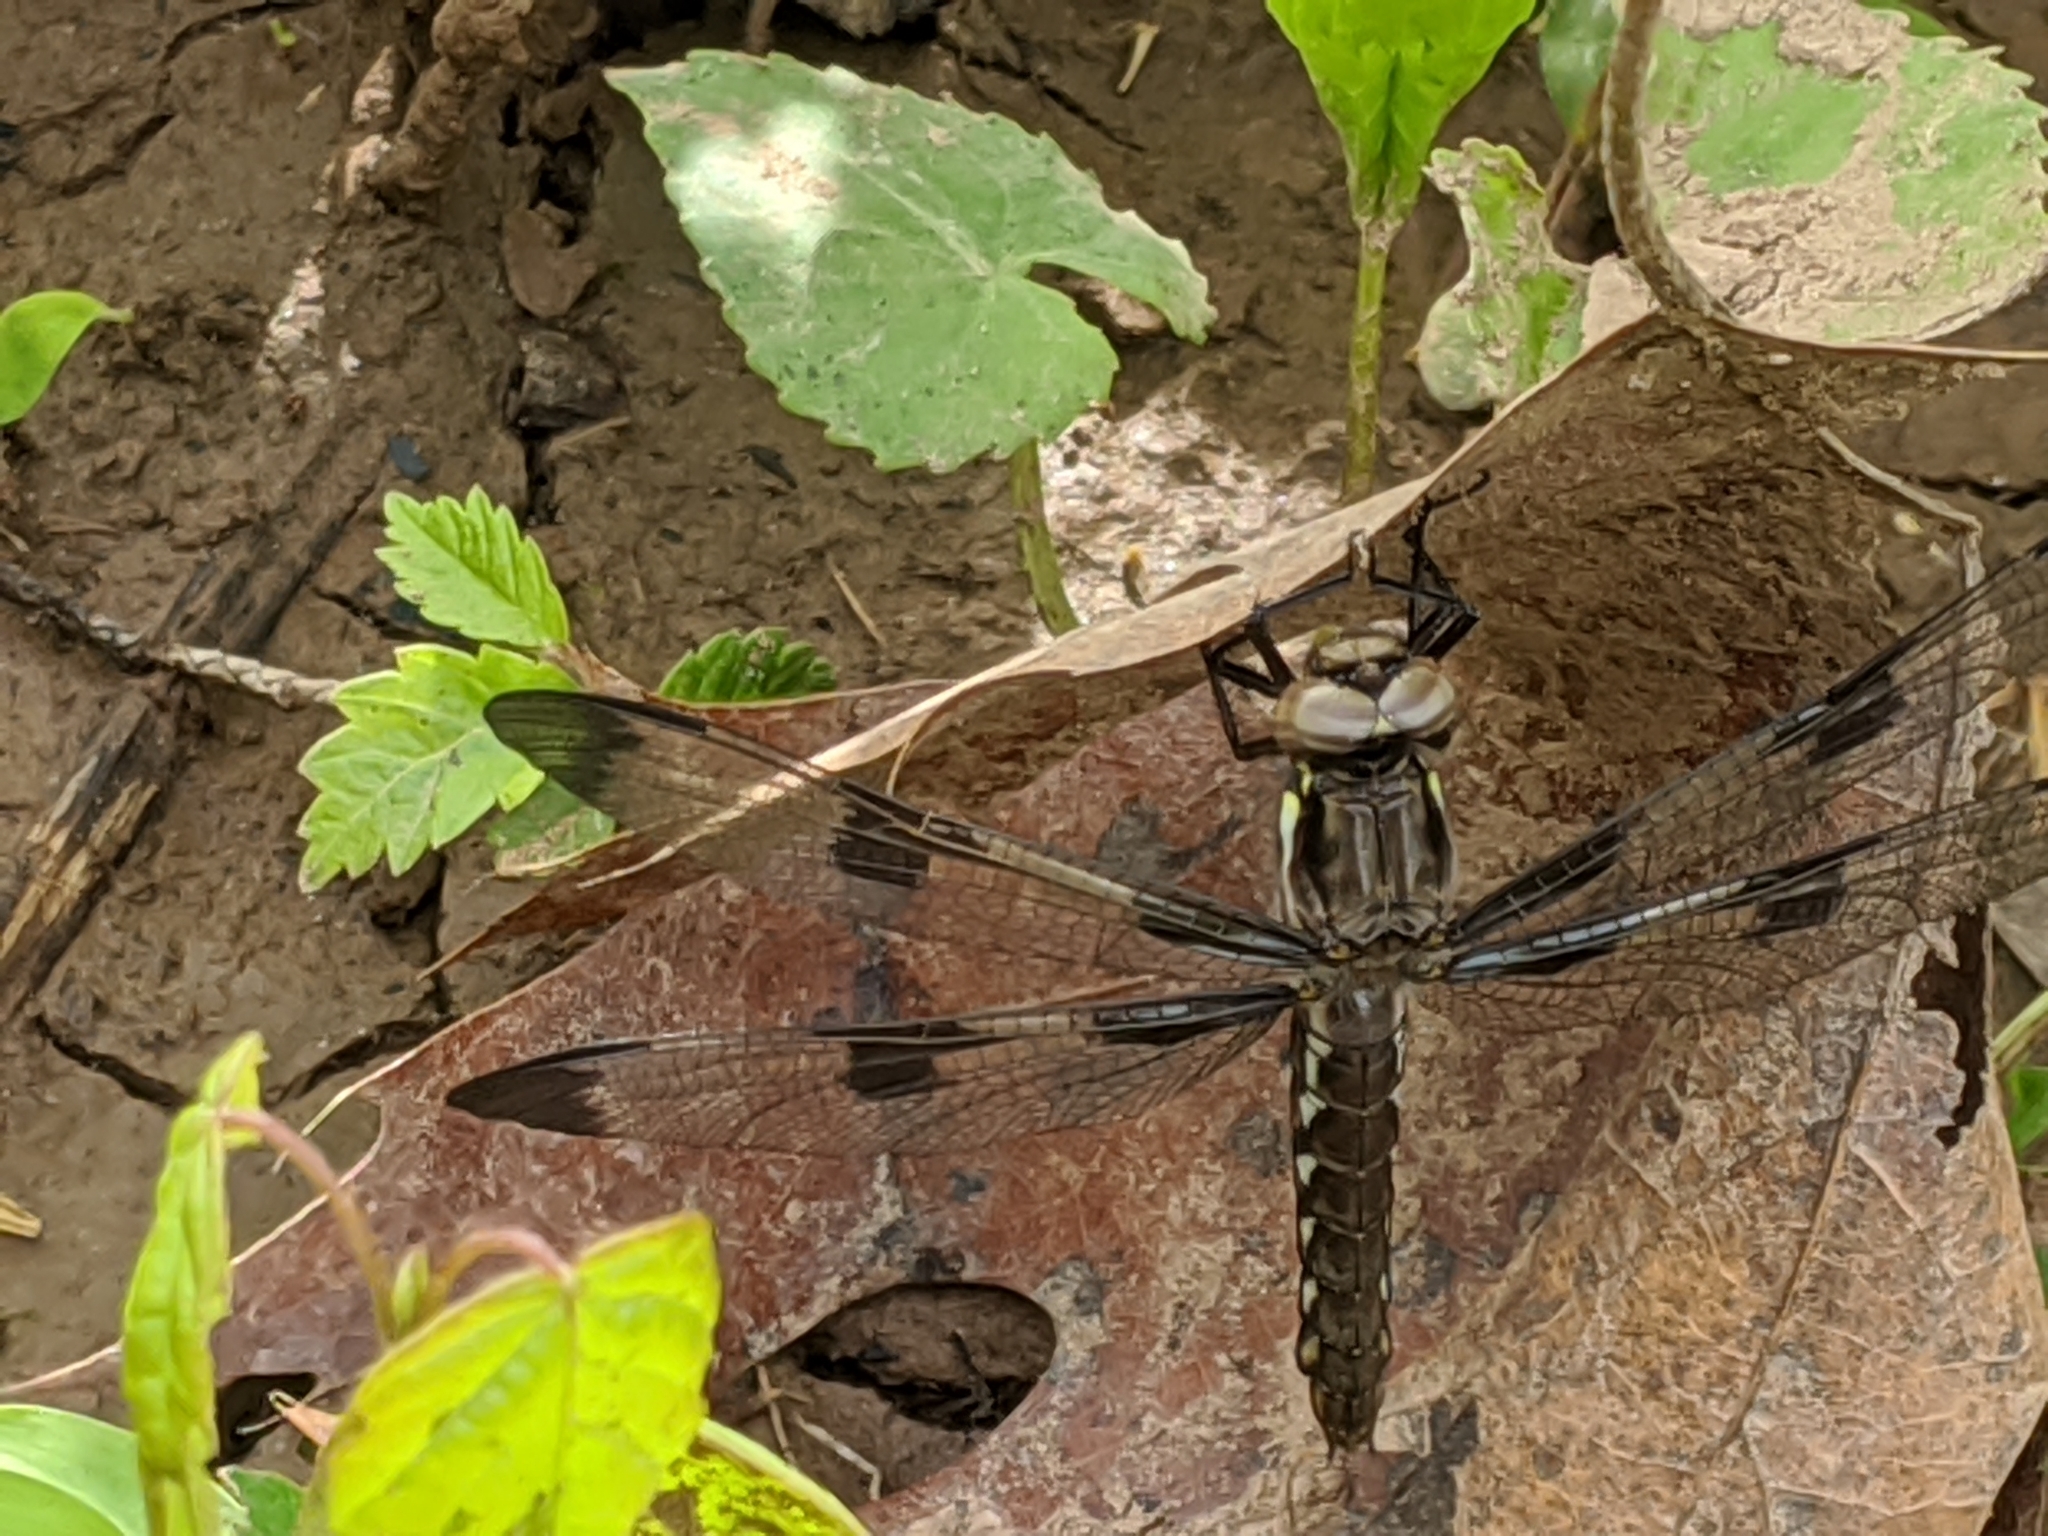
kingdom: Animalia
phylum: Arthropoda
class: Insecta
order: Odonata
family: Libellulidae
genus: Plathemis
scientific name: Plathemis lydia
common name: Common whitetail
